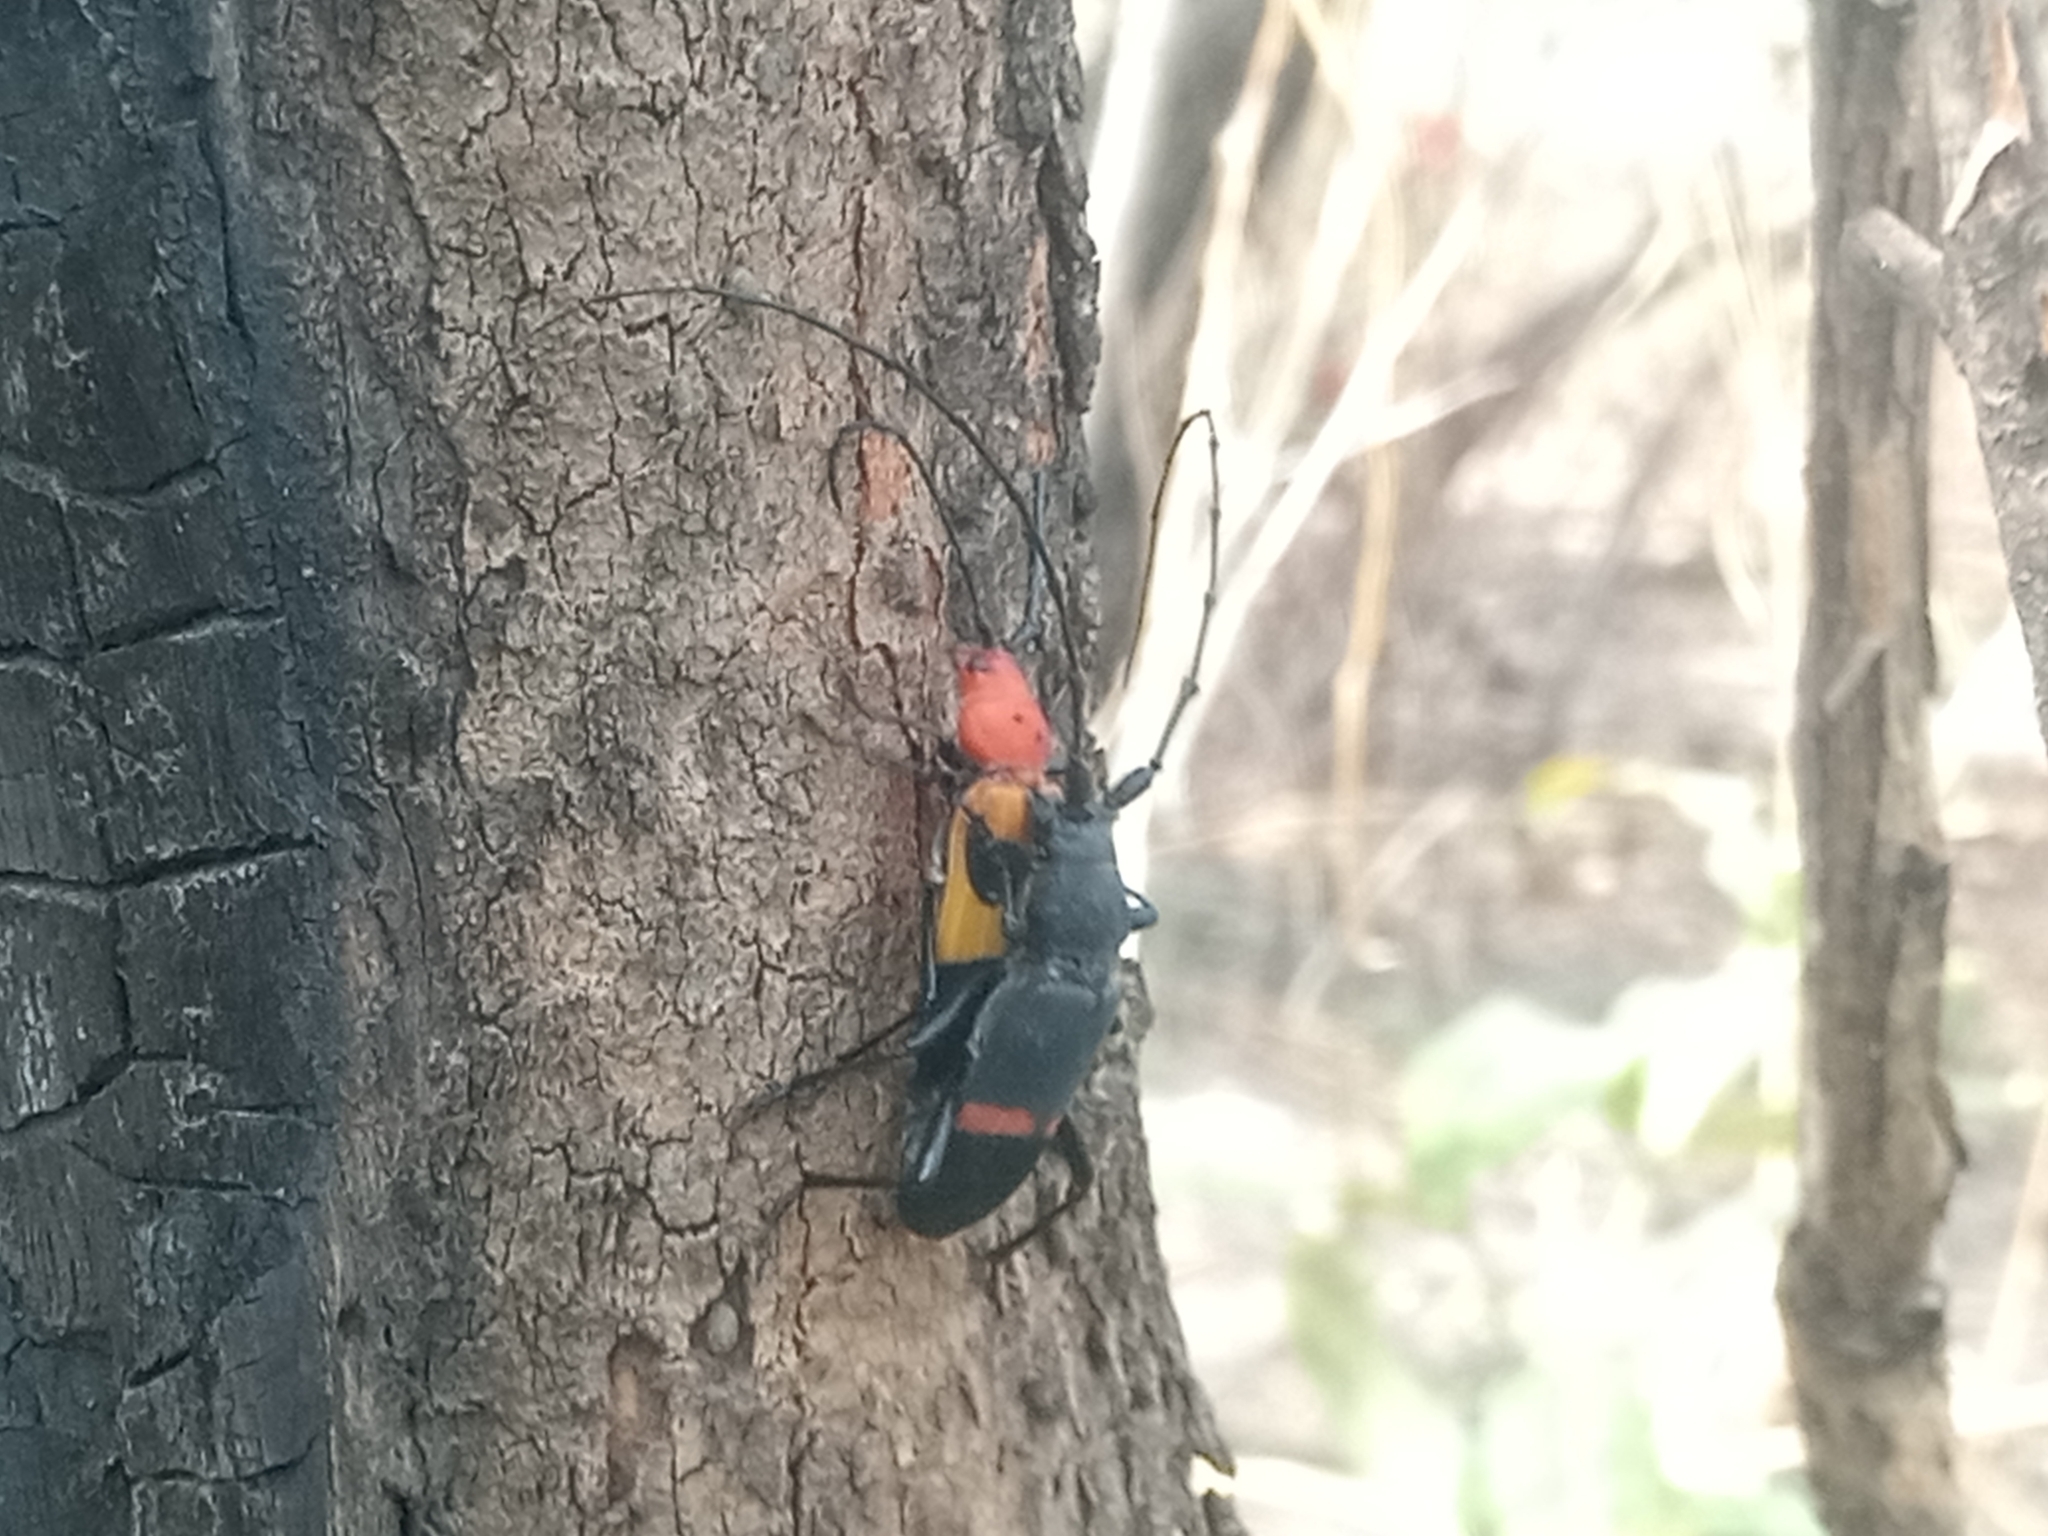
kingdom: Animalia
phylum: Arthropoda
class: Insecta
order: Coleoptera
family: Cerambycidae
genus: Eleanor
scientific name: Eleanor medici
